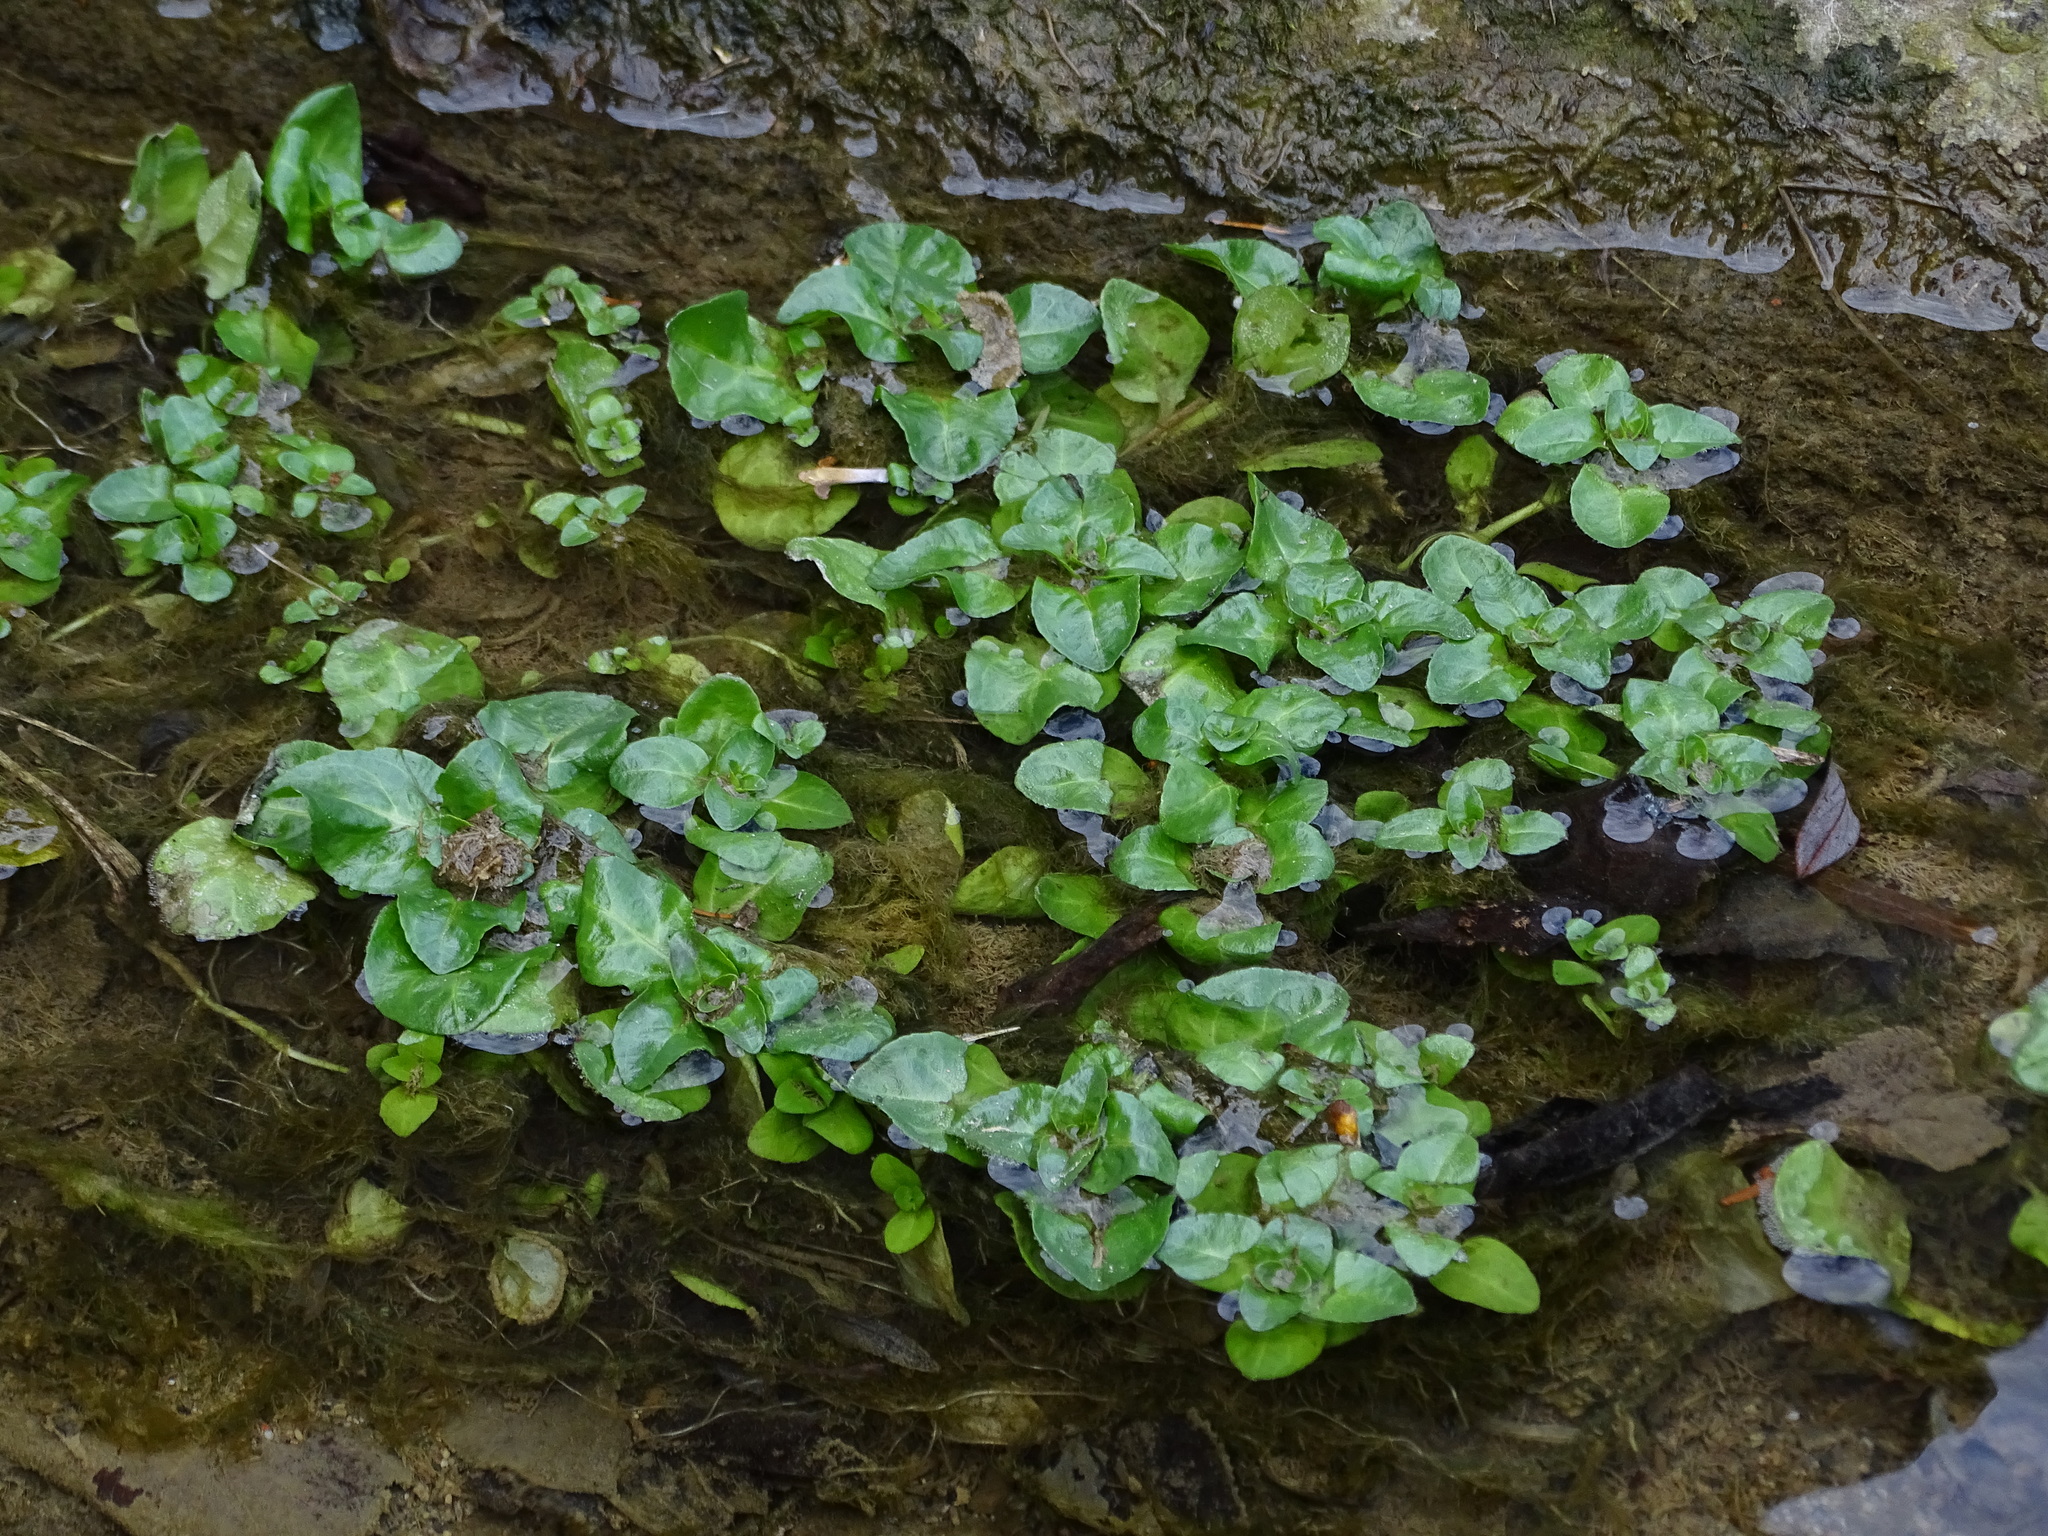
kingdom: Plantae
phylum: Tracheophyta
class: Magnoliopsida
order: Lamiales
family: Plantaginaceae
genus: Veronica
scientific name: Veronica beccabunga
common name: Brooklime
